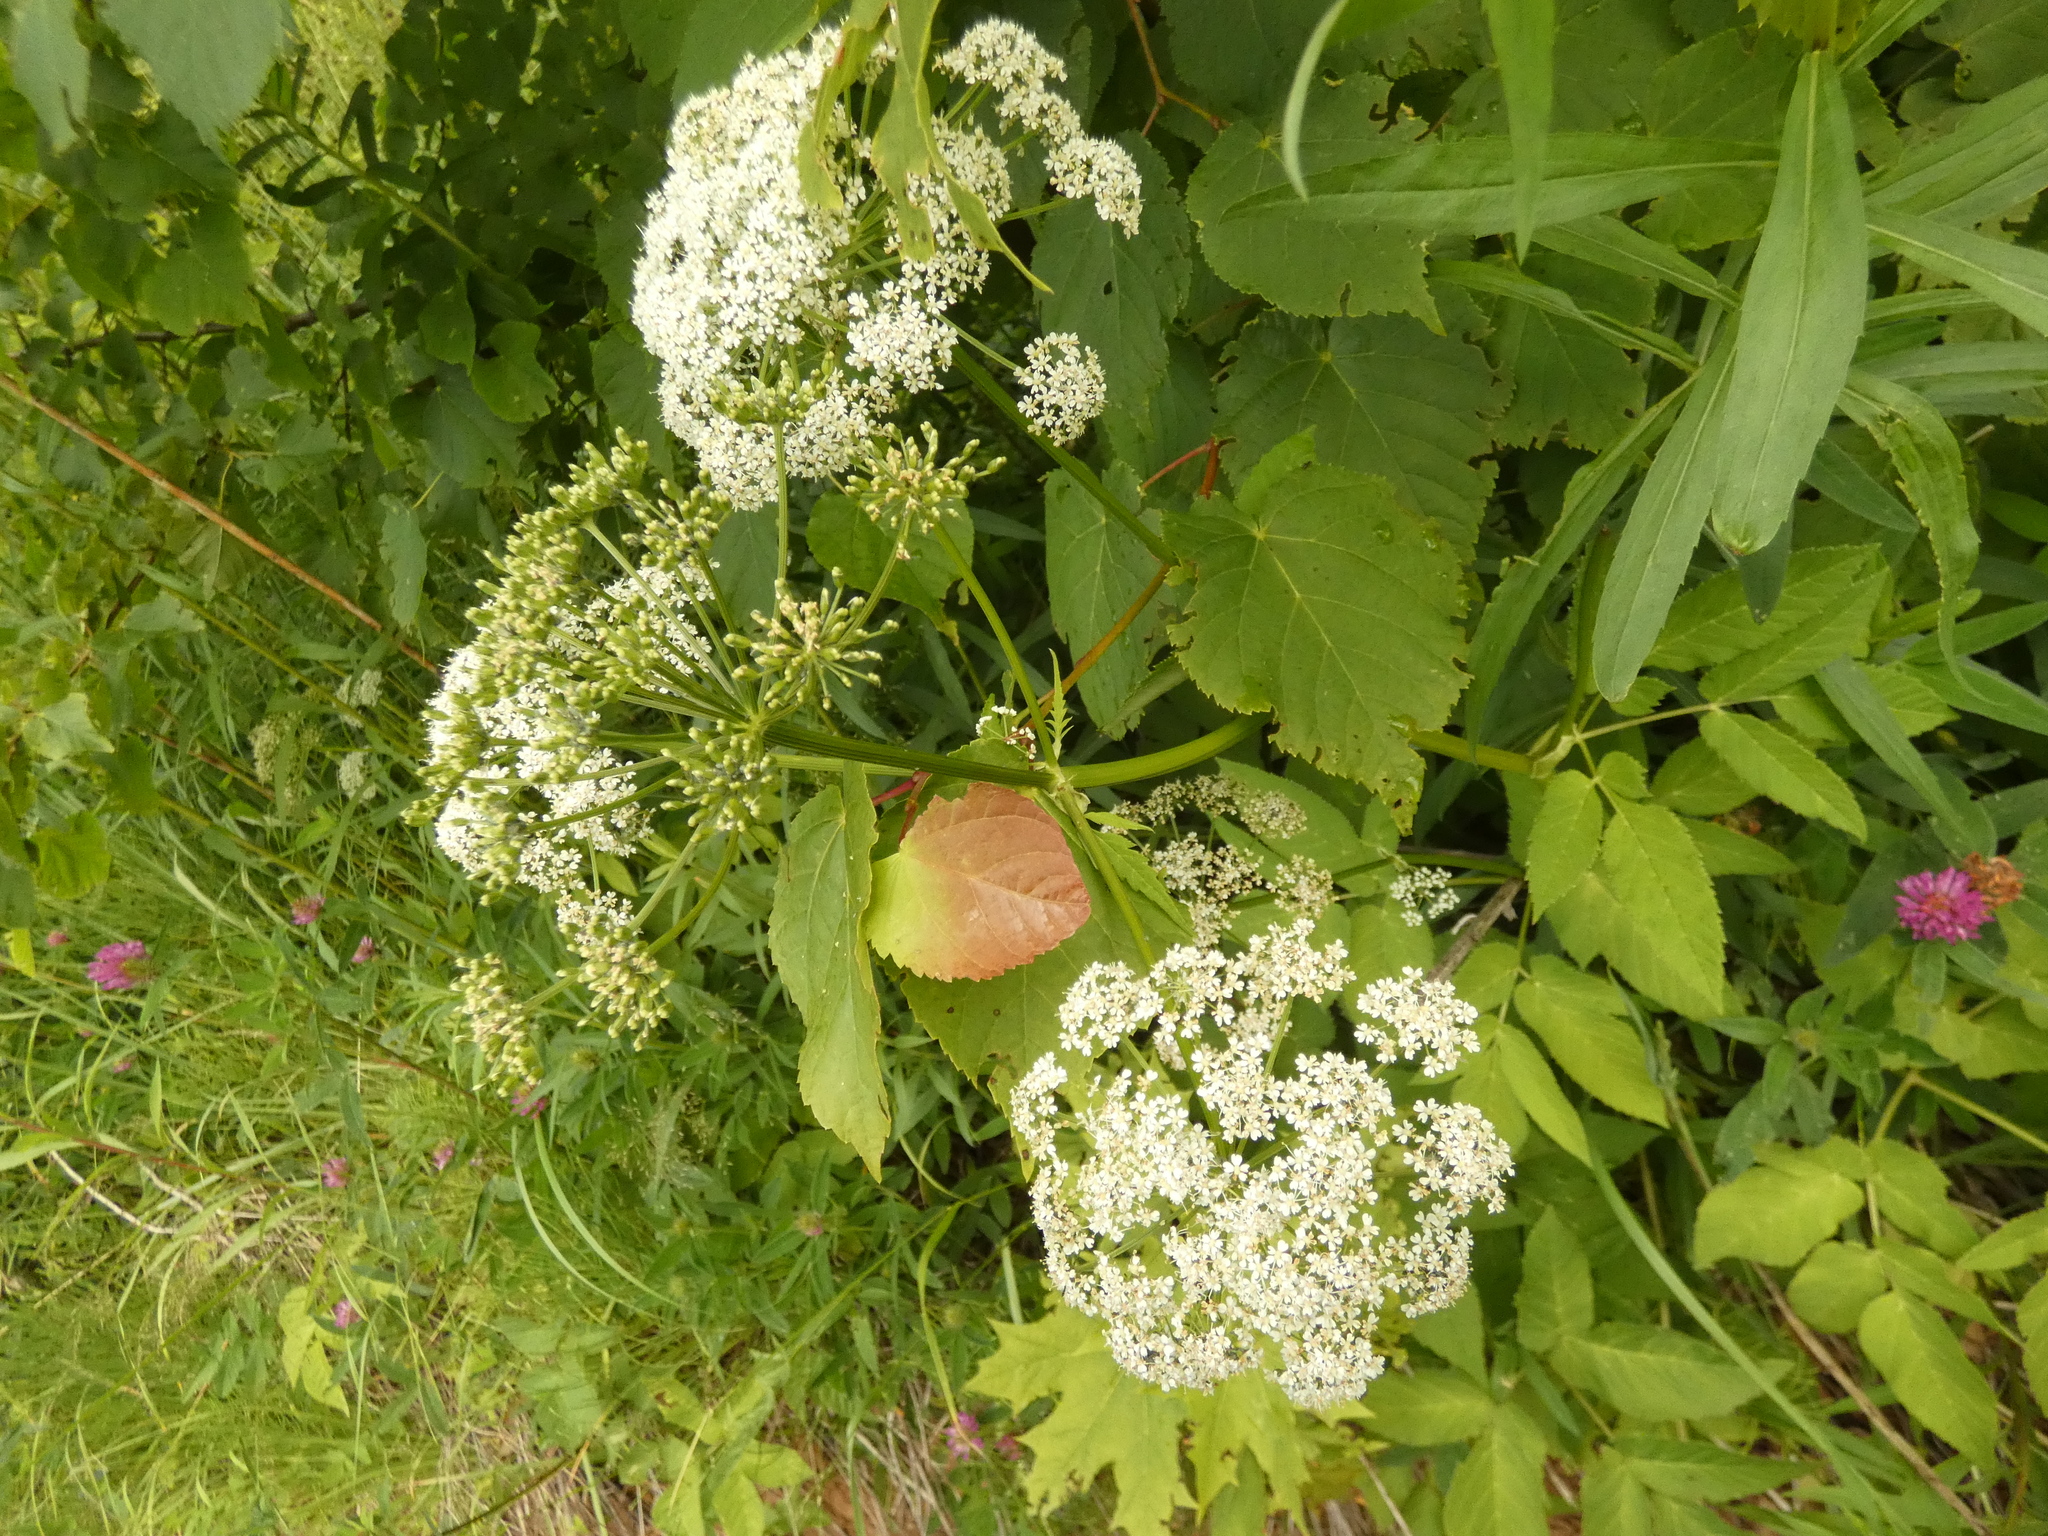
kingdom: Plantae
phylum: Tracheophyta
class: Magnoliopsida
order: Apiales
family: Apiaceae
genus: Aegopodium
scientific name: Aegopodium podagraria
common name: Ground-elder
